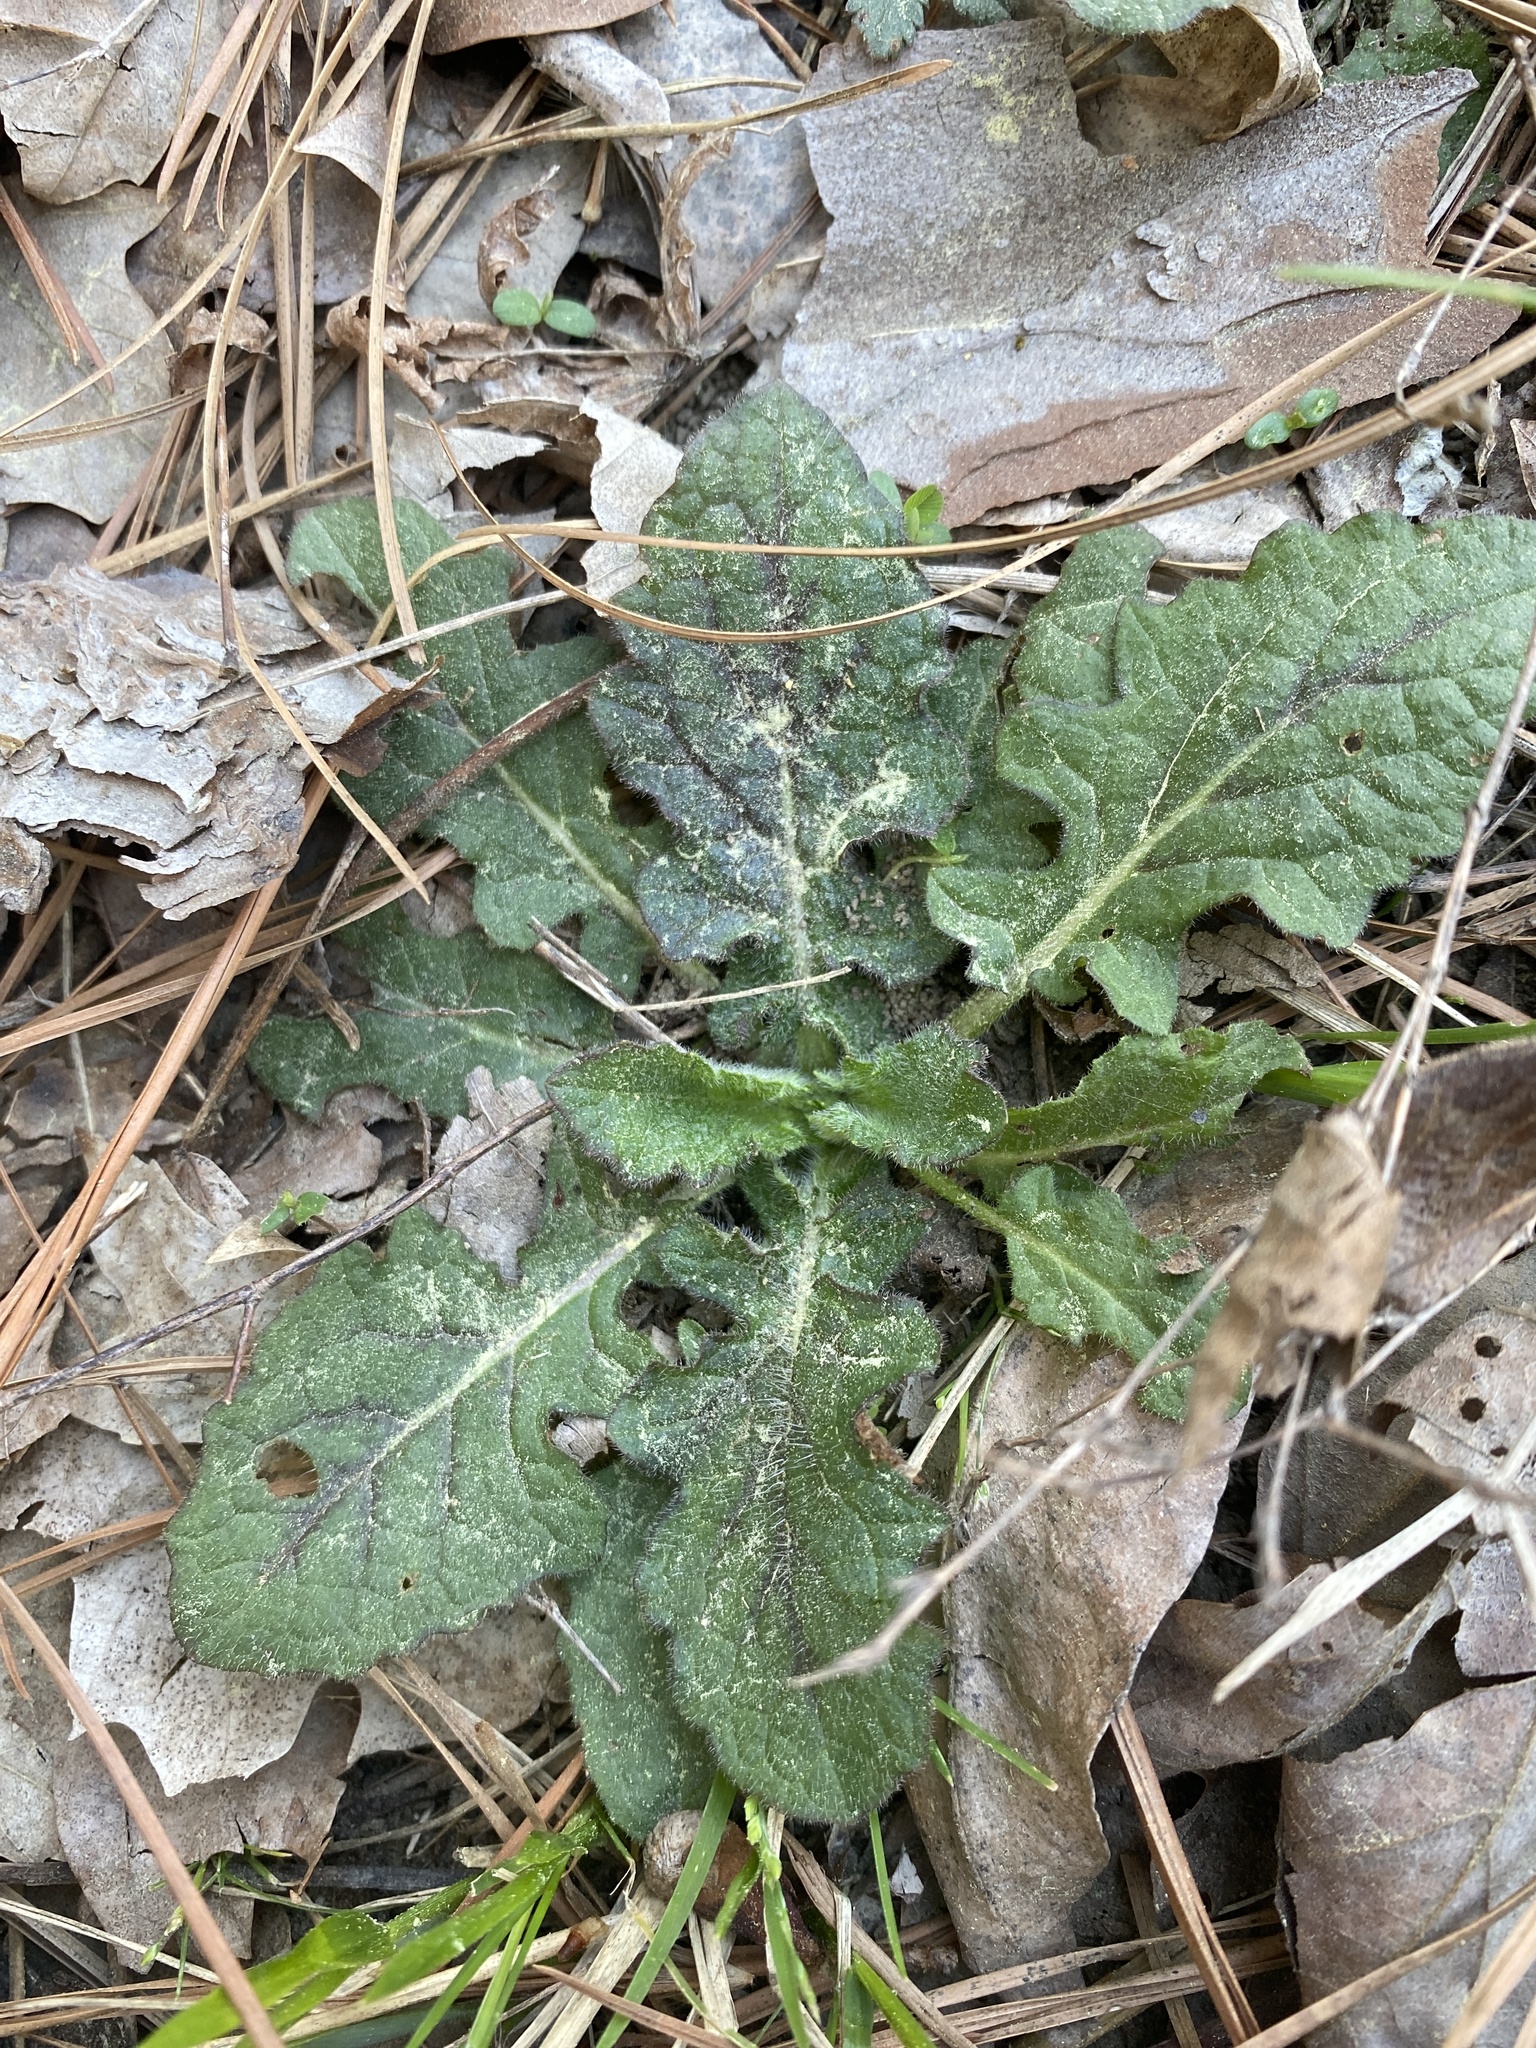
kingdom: Plantae
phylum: Tracheophyta
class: Magnoliopsida
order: Lamiales
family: Lamiaceae
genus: Salvia
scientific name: Salvia lyrata
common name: Cancerweed
